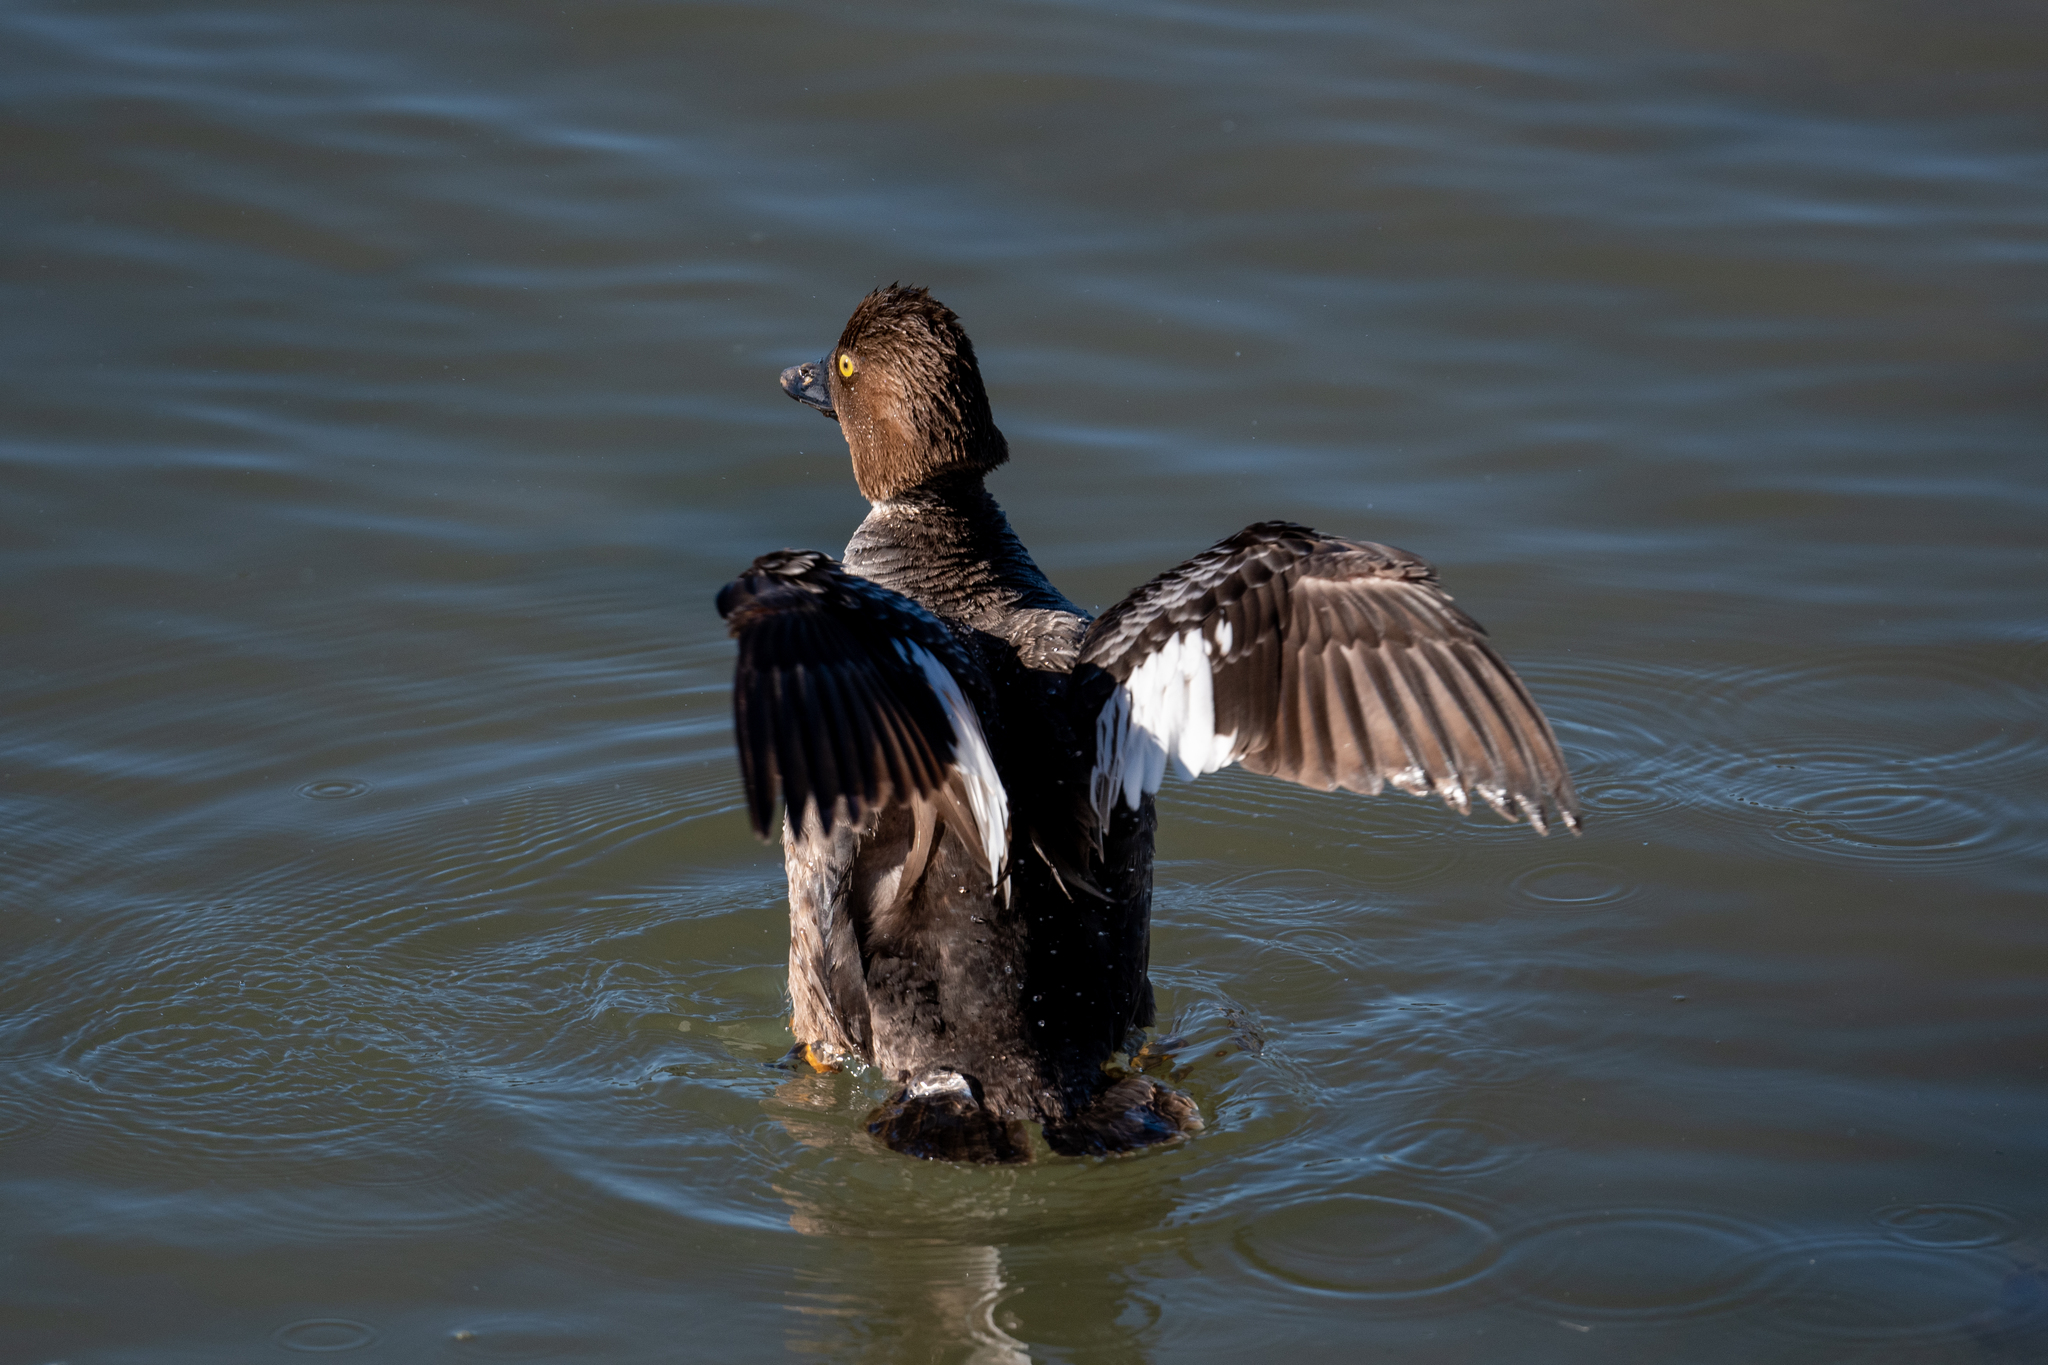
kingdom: Animalia
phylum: Chordata
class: Aves
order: Anseriformes
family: Anatidae
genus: Bucephala
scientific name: Bucephala clangula
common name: Common goldeneye
